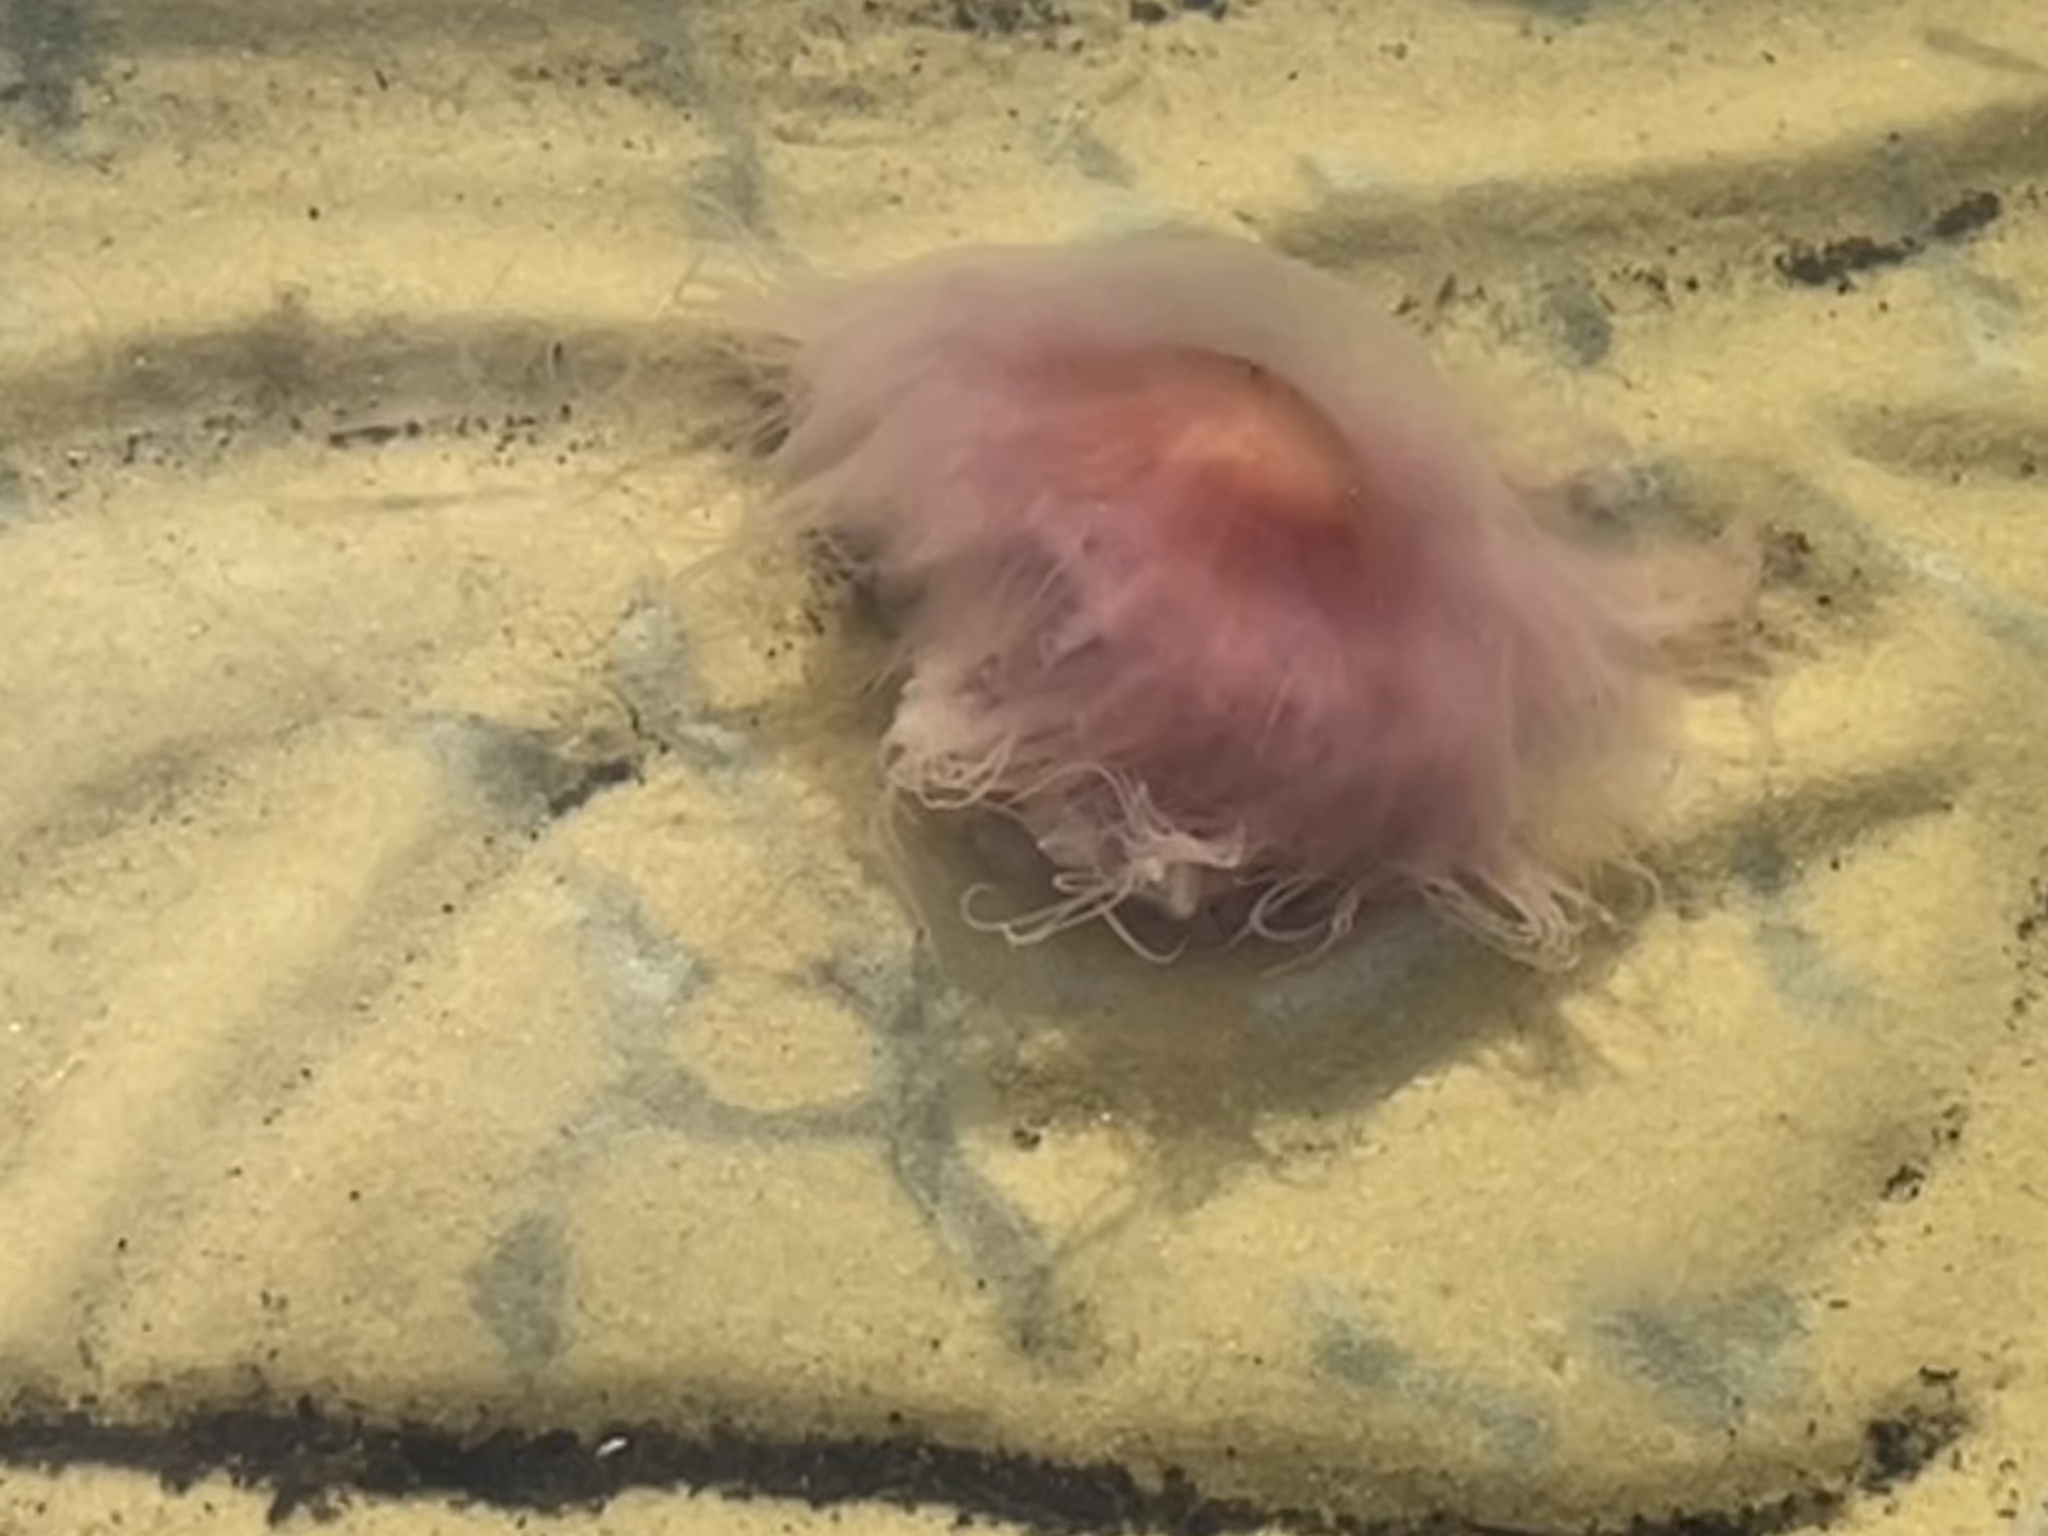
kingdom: Animalia
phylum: Cnidaria
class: Scyphozoa
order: Semaeostomeae
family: Cyaneidae
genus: Cyanea
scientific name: Cyanea versicolor
